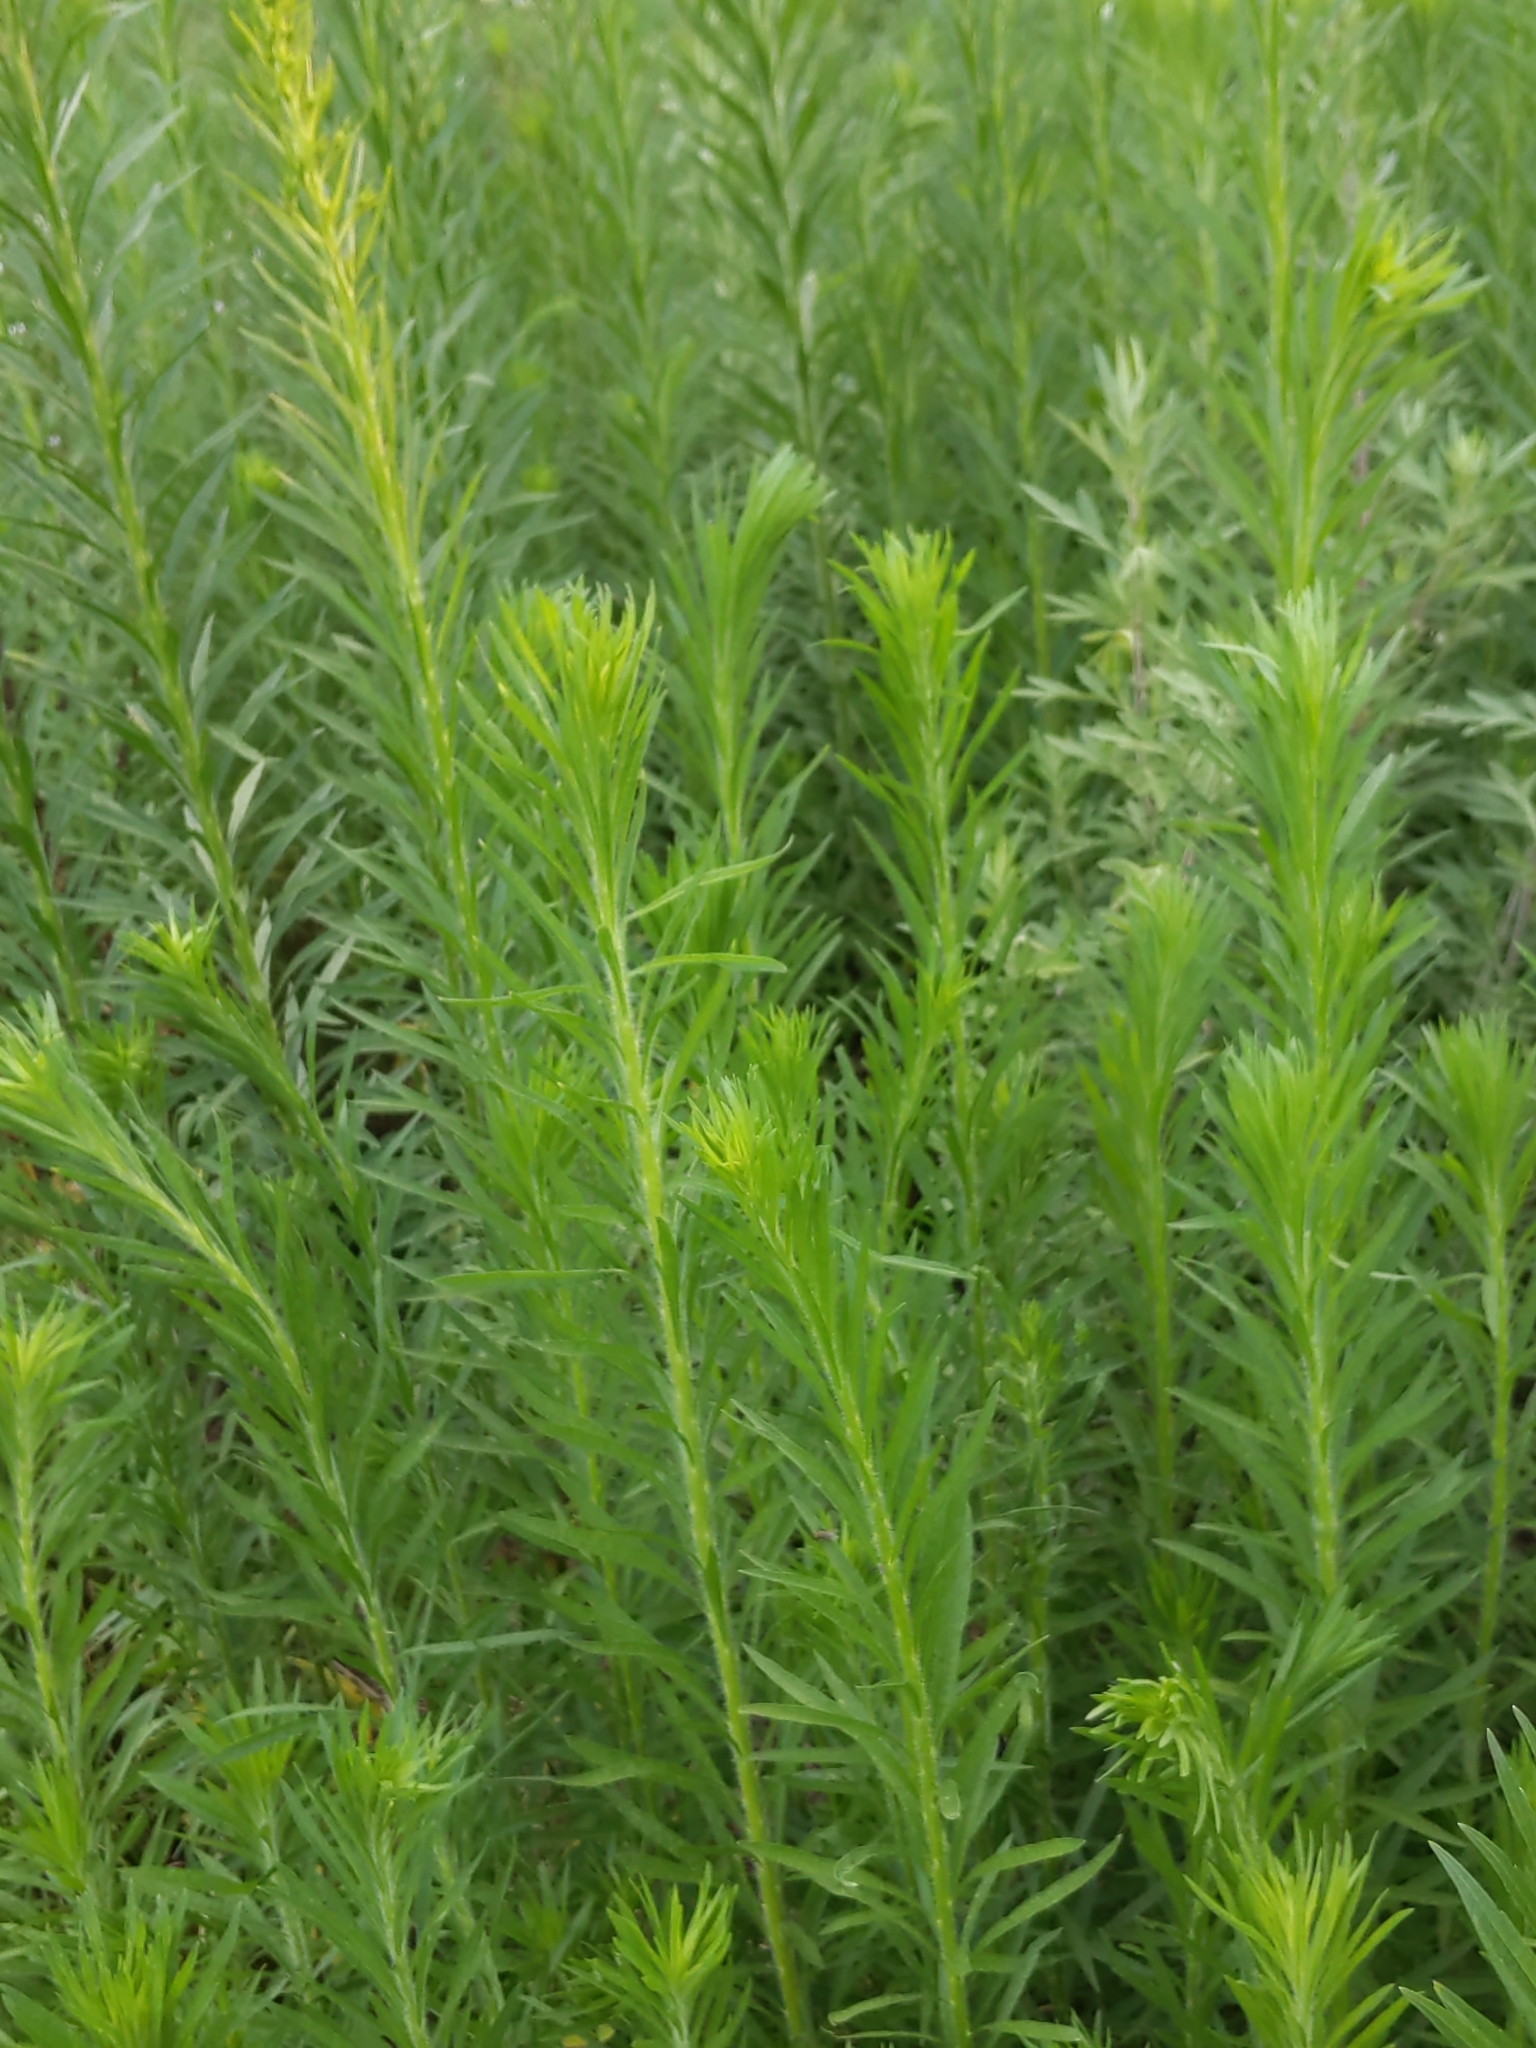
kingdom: Plantae
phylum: Tracheophyta
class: Magnoliopsida
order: Asterales
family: Asteraceae
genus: Erigeron
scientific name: Erigeron canadensis
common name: Canadian fleabane
